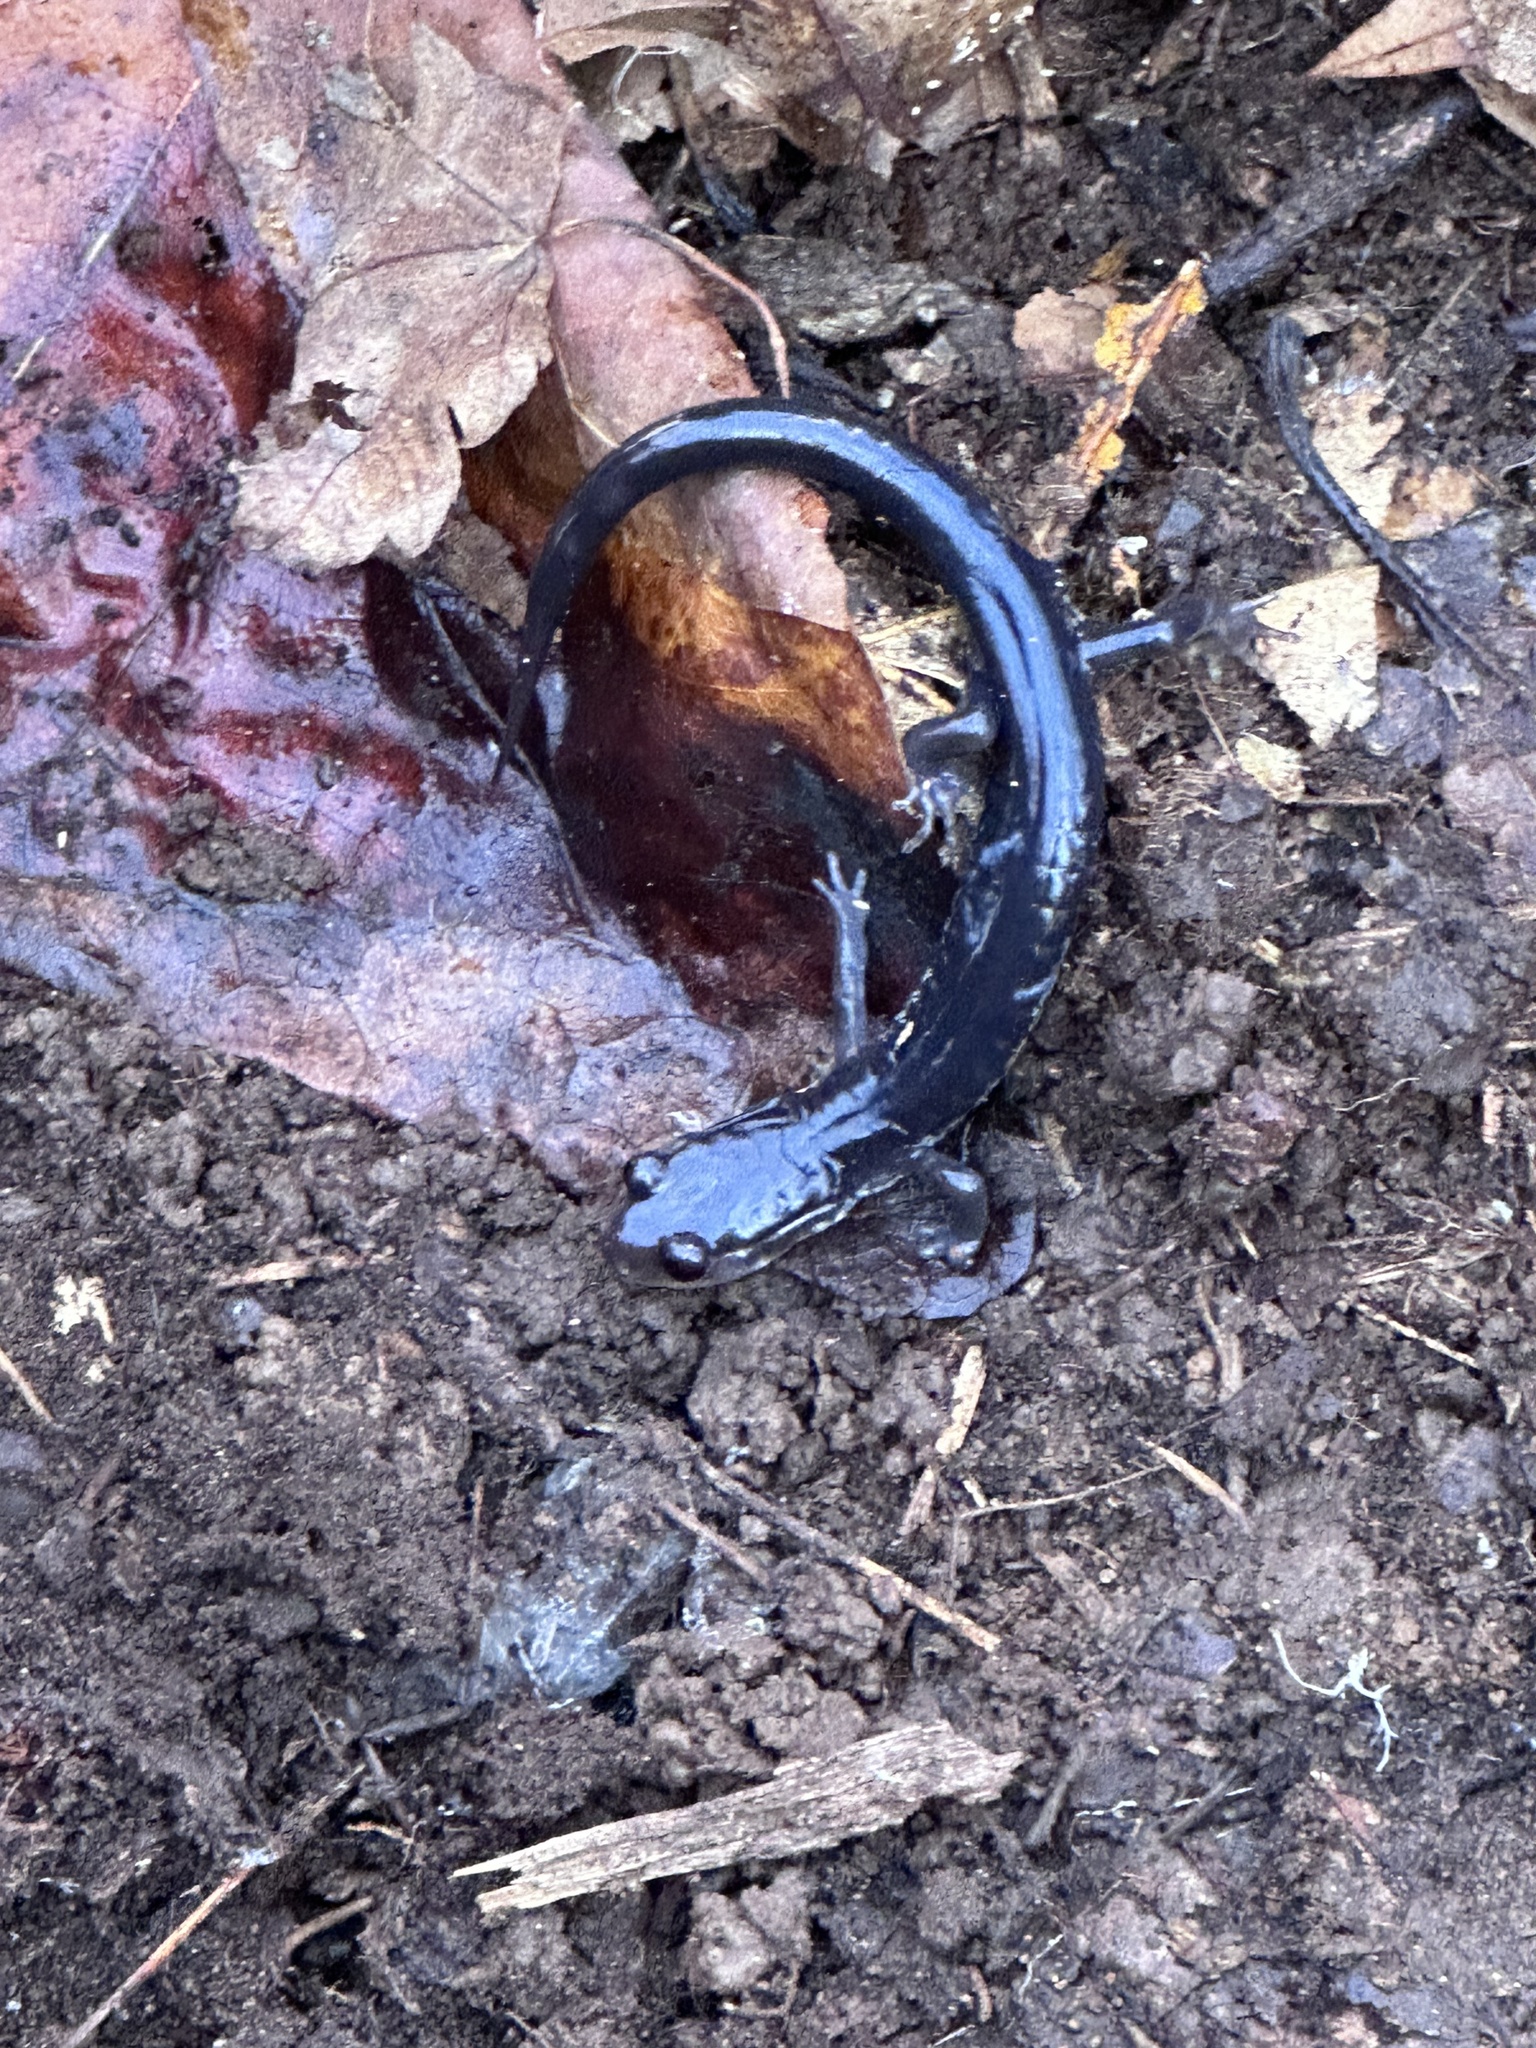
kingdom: Animalia
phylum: Chordata
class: Amphibia
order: Caudata
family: Plethodontidae
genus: Plethodon
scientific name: Plethodon chattahoochee
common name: Chattahoochee slimy salamander
